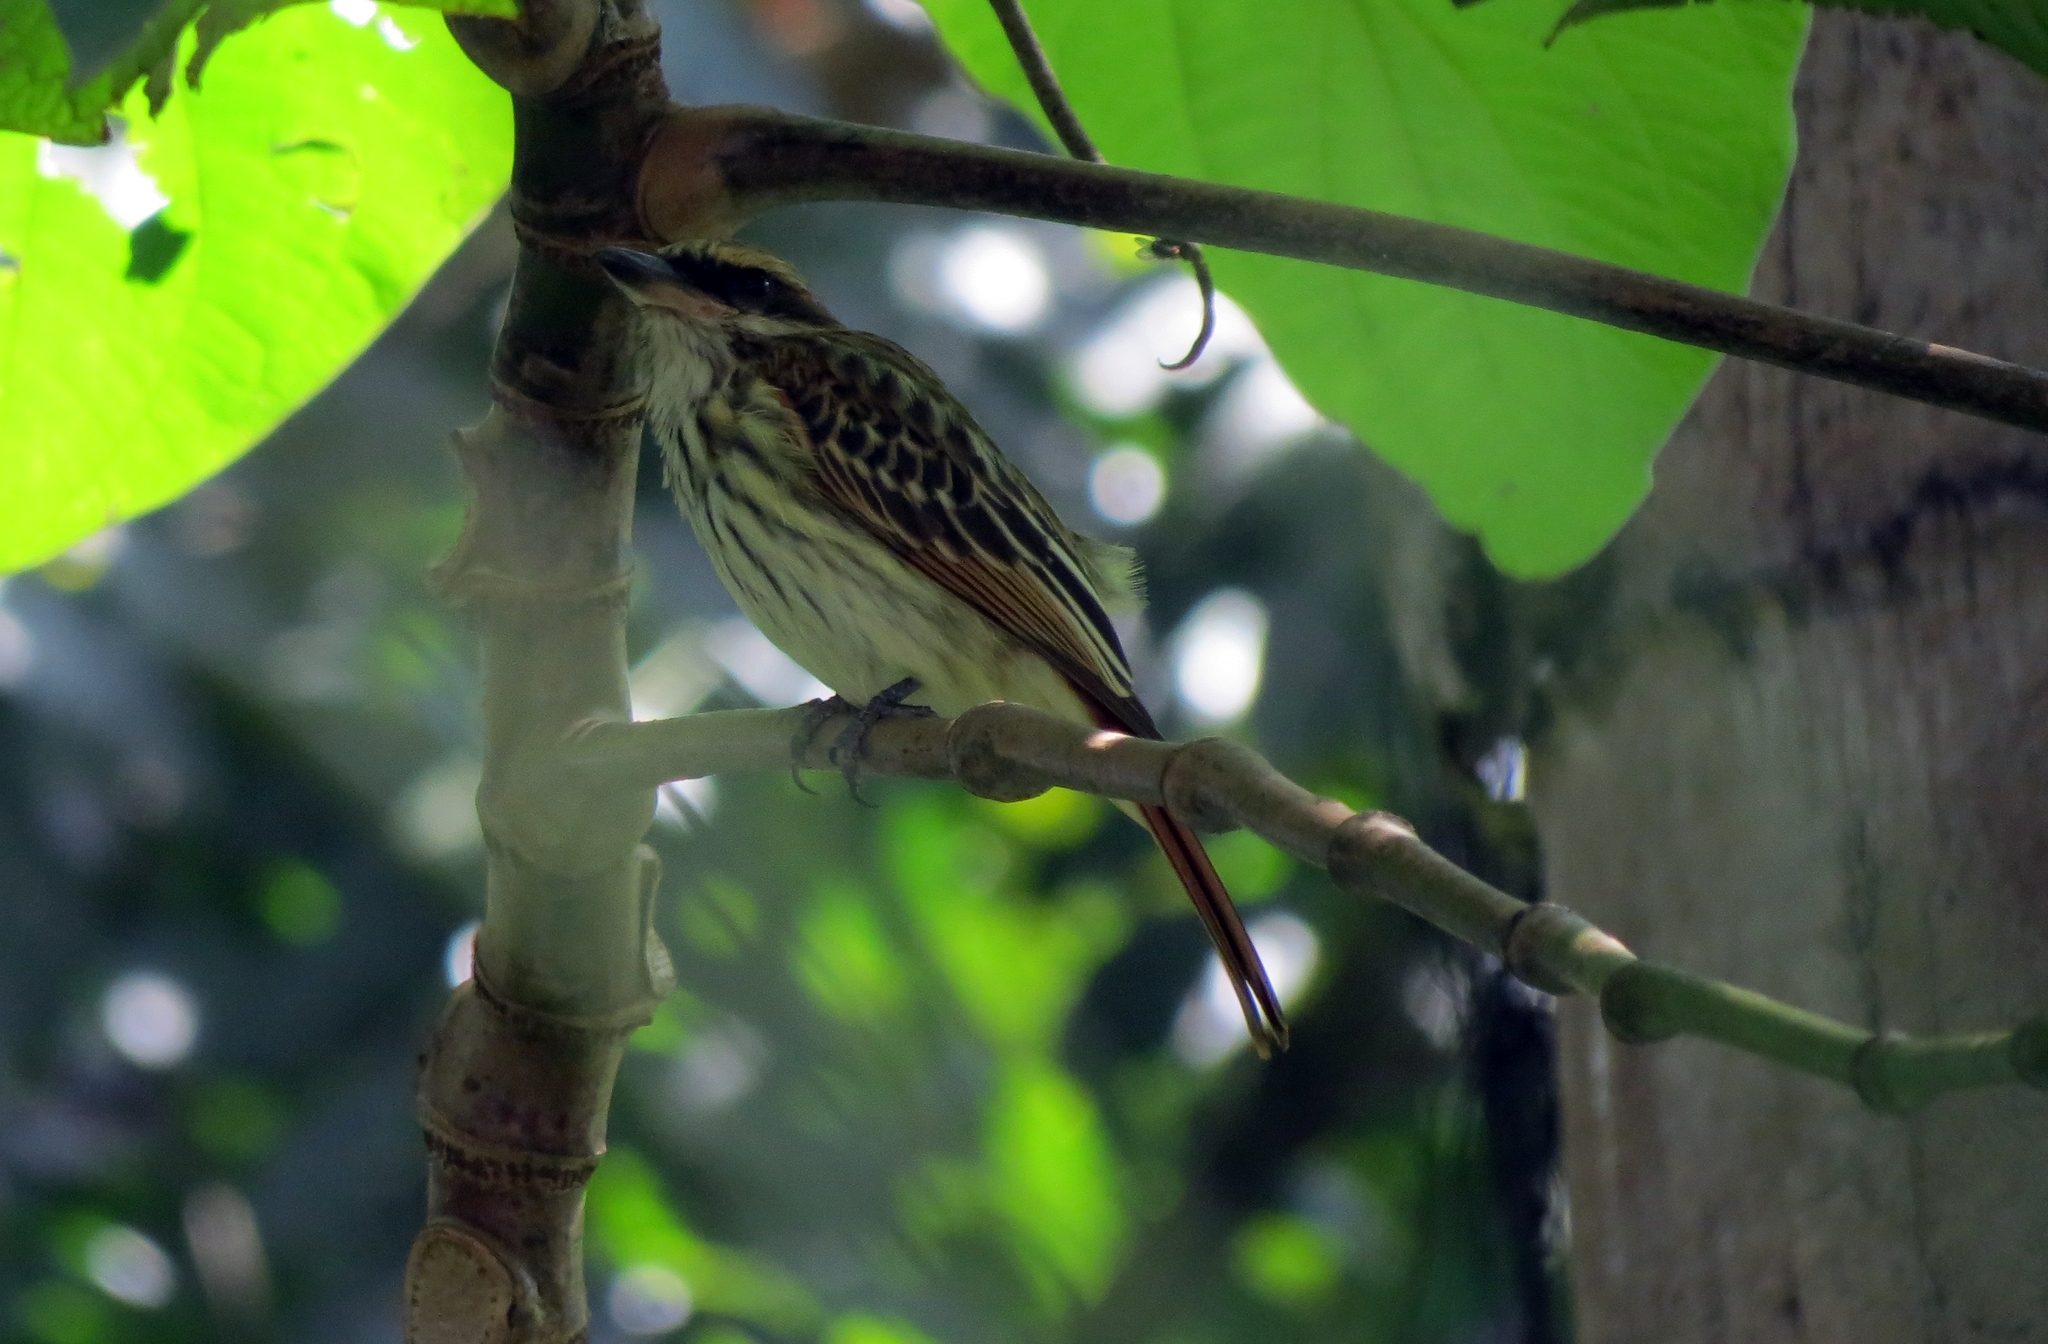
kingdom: Animalia
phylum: Chordata
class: Aves
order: Passeriformes
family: Tyrannidae
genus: Myiodynastes
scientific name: Myiodynastes maculatus
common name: Streaked flycatcher
